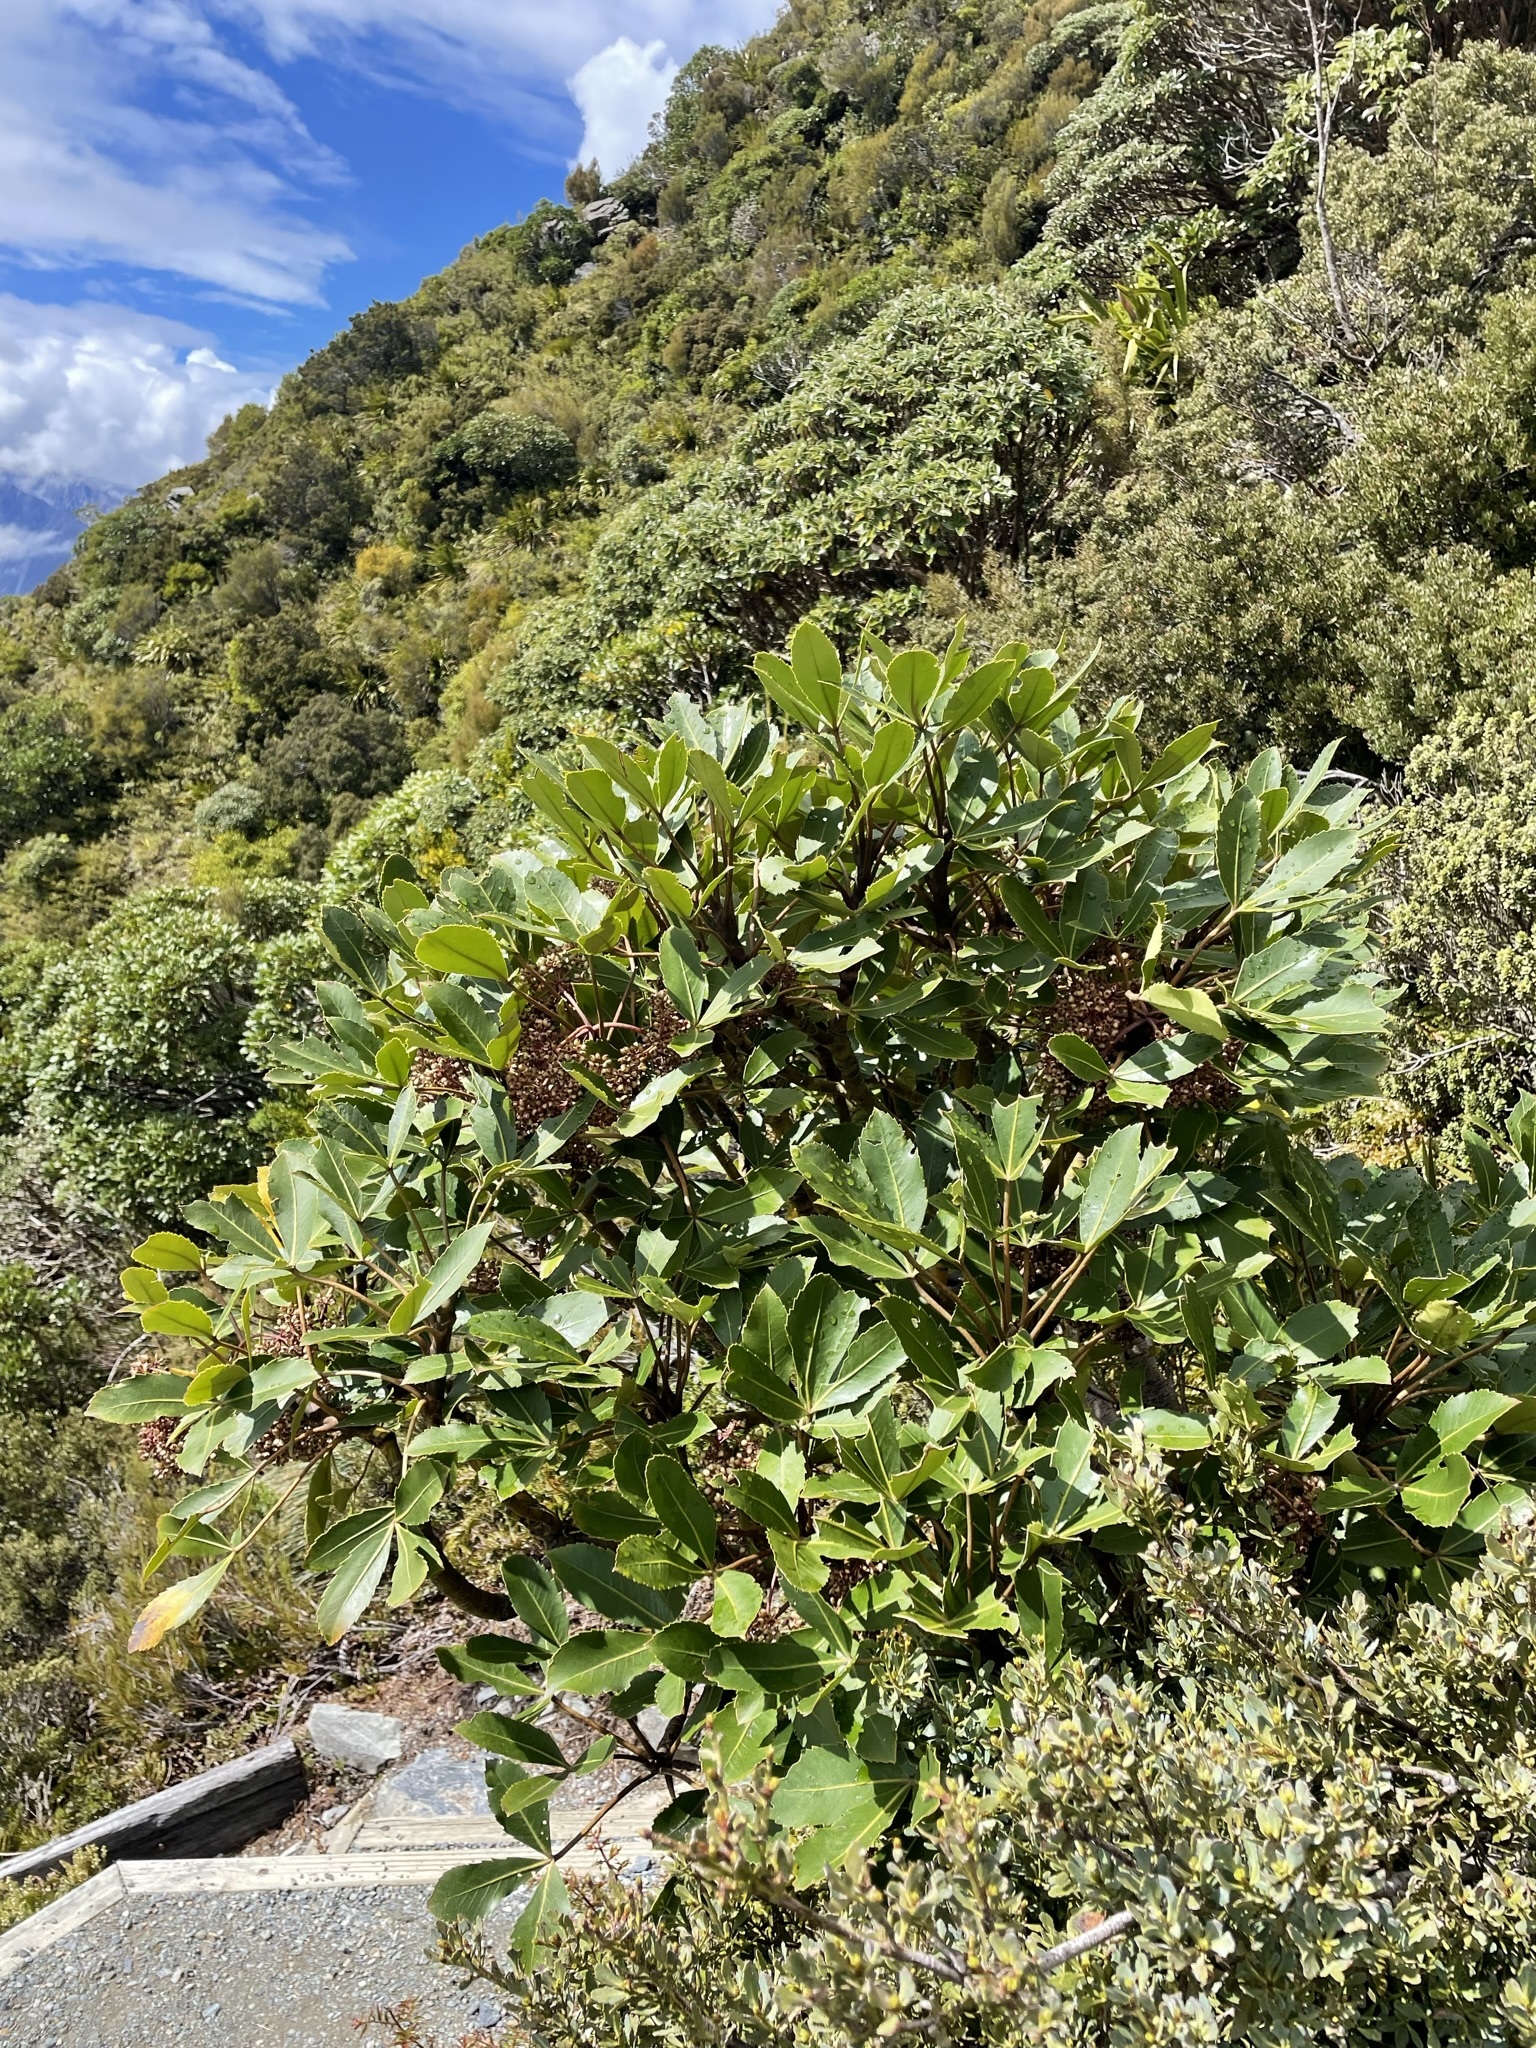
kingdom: Plantae
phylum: Tracheophyta
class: Magnoliopsida
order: Apiales
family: Araliaceae
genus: Neopanax
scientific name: Neopanax colensoi
